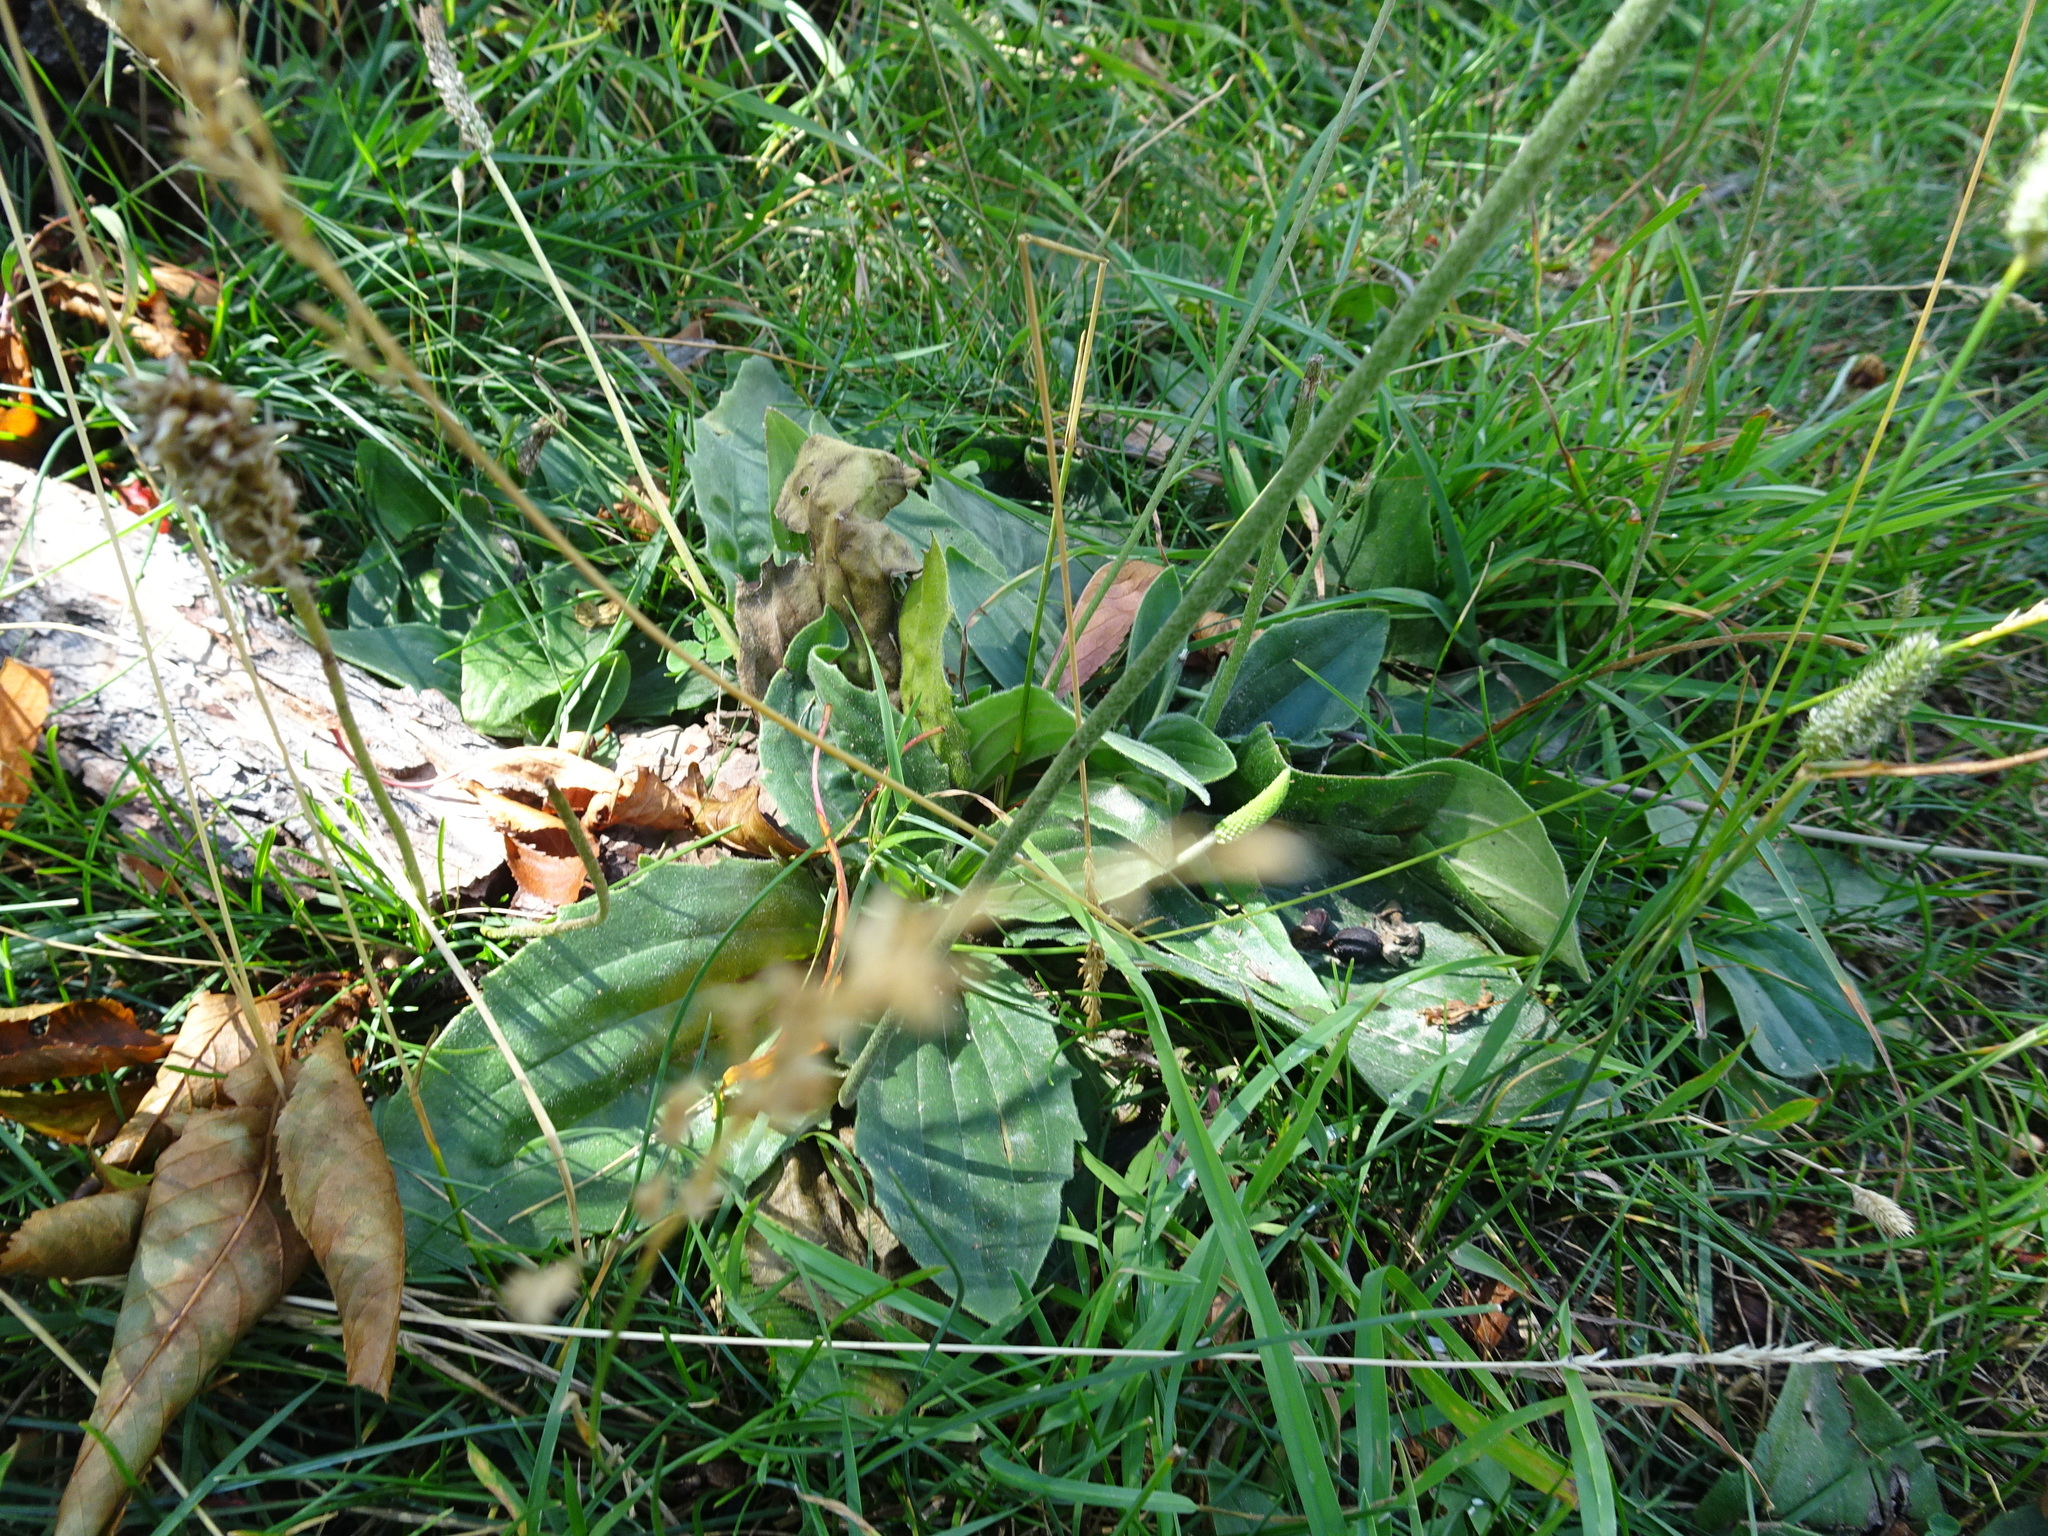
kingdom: Plantae
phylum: Tracheophyta
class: Magnoliopsida
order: Lamiales
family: Plantaginaceae
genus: Plantago
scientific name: Plantago media
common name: Hoary plantain
